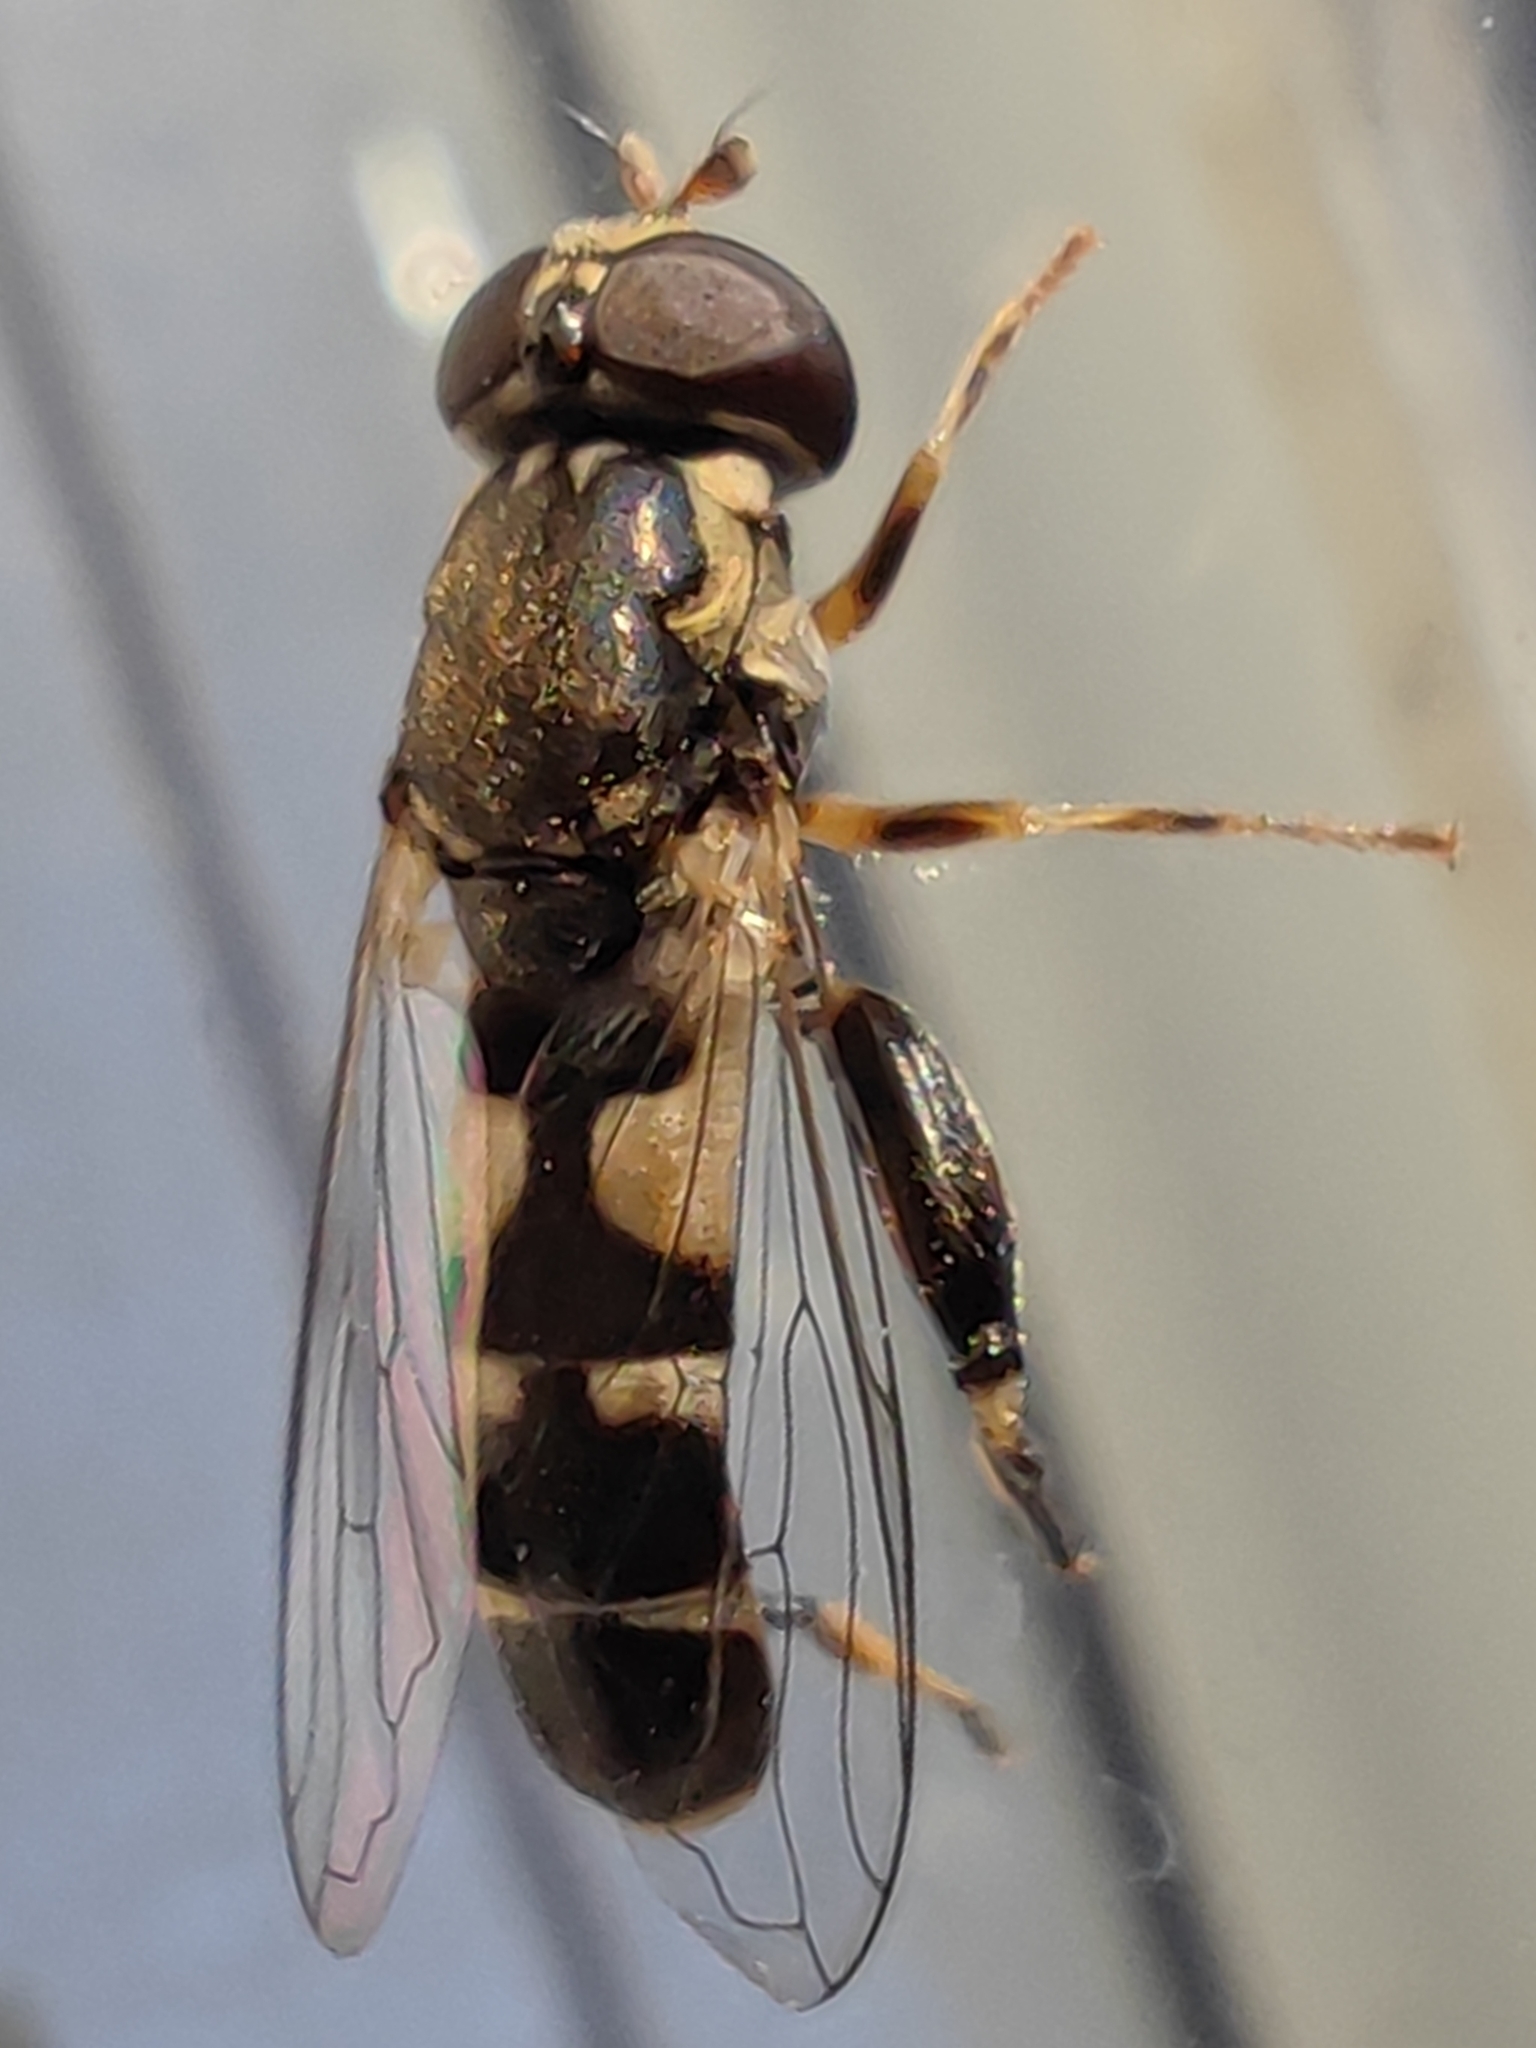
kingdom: Animalia
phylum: Arthropoda
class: Insecta
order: Diptera
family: Syrphidae
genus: Syritta
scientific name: Syritta pipiens
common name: Hover fly
